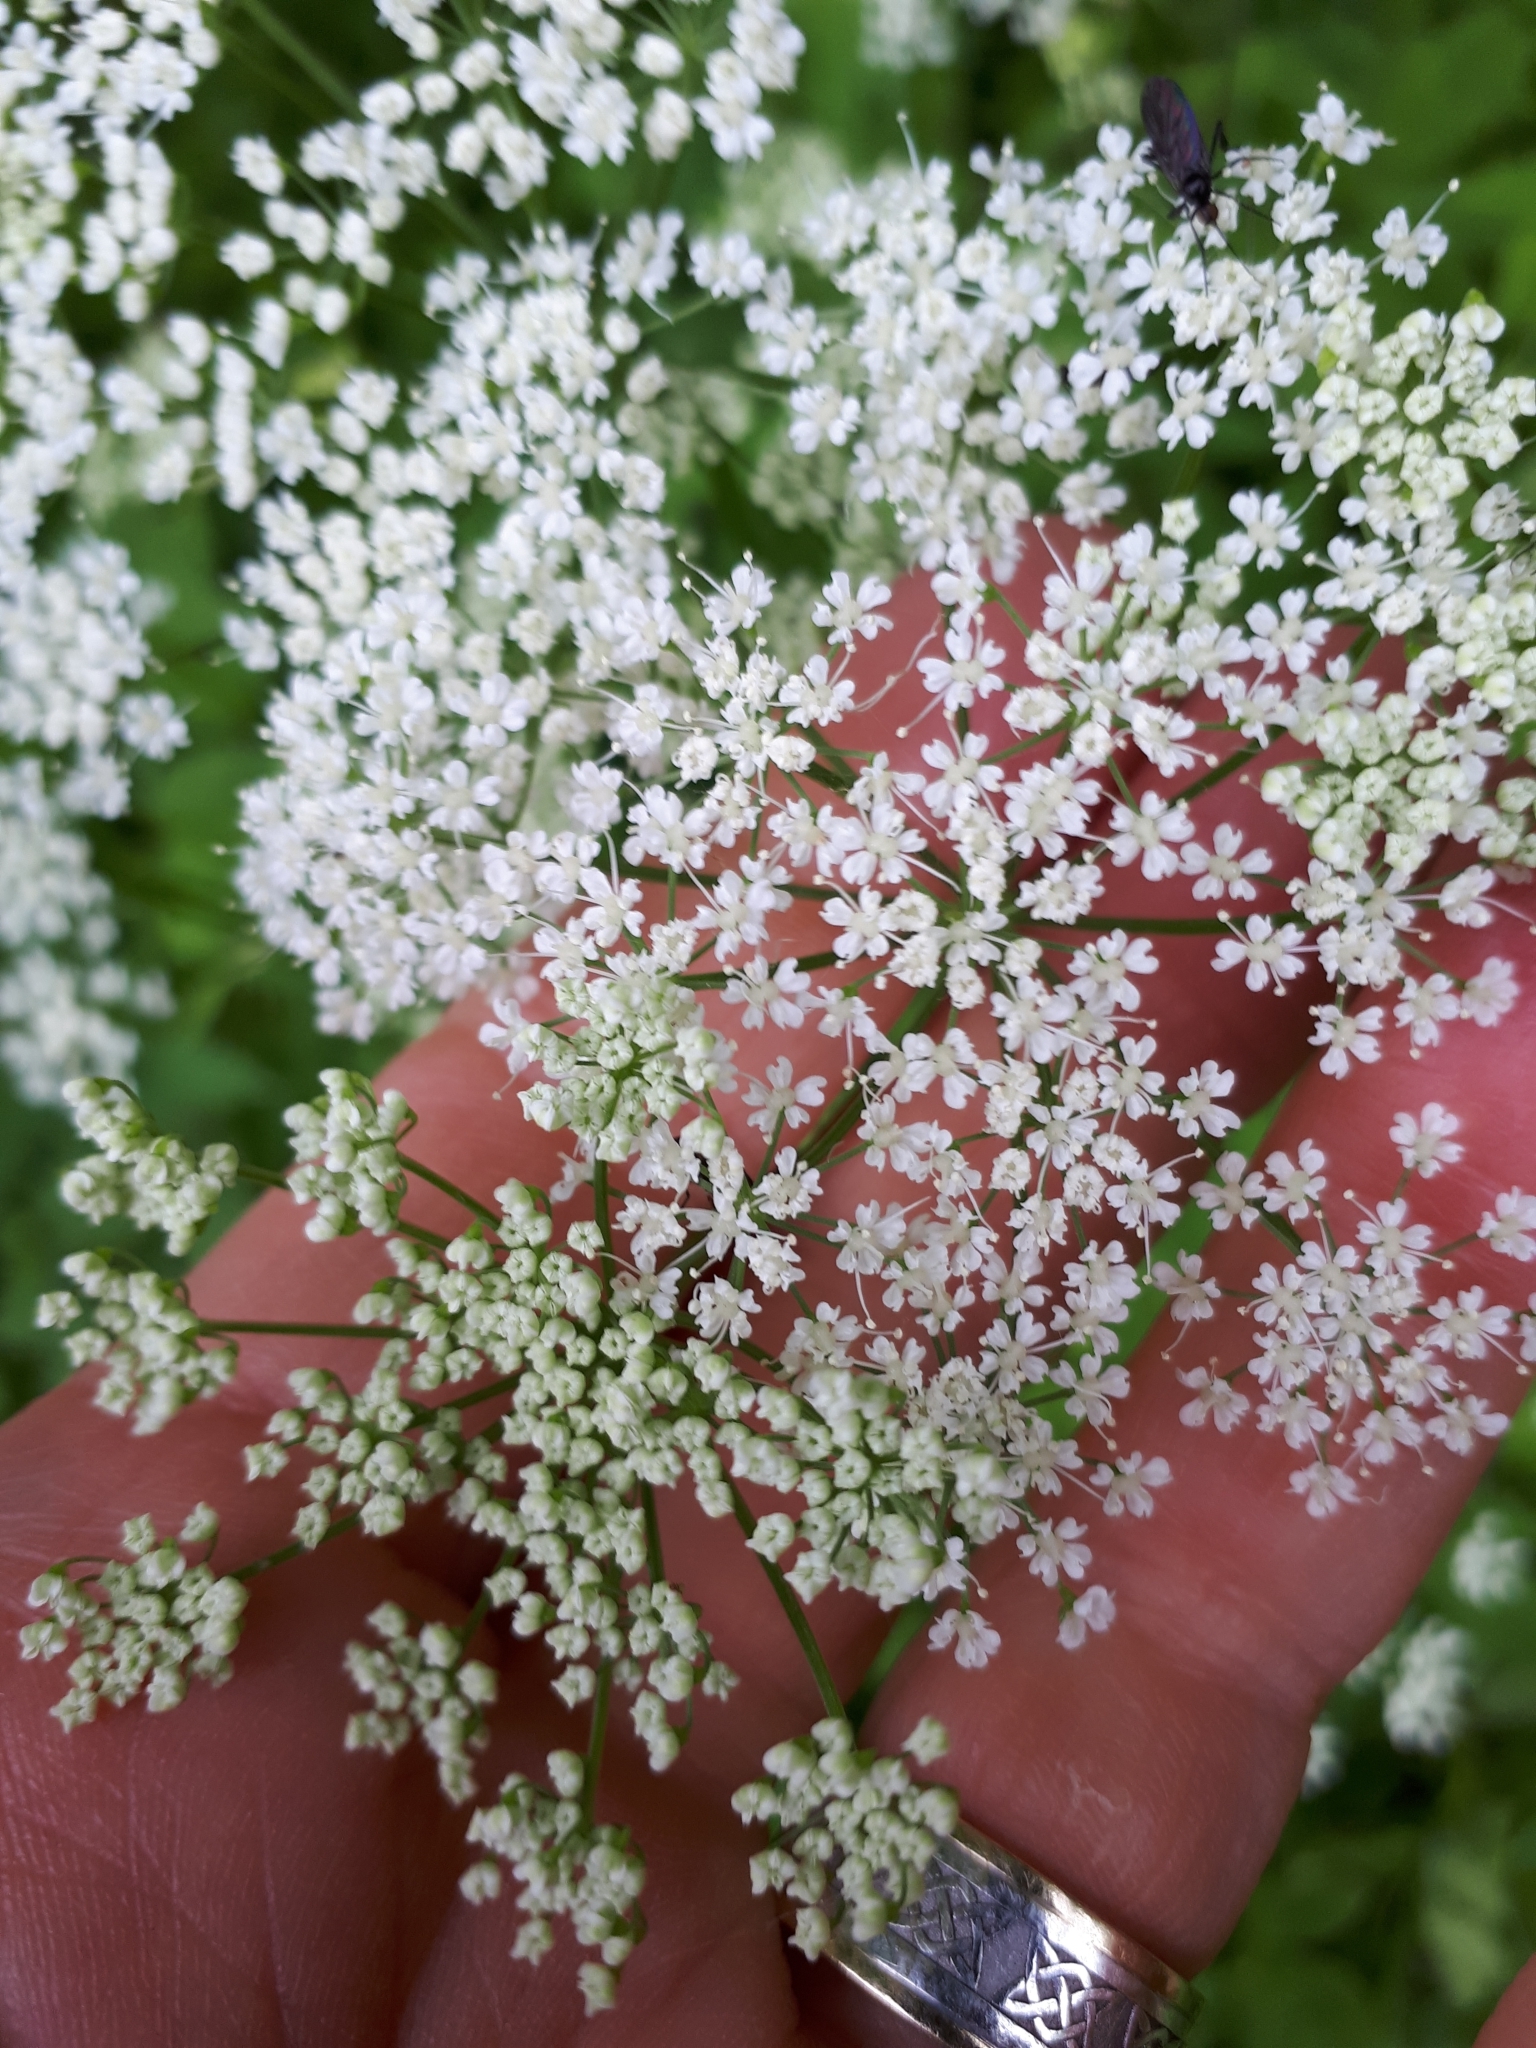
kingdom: Plantae
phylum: Tracheophyta
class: Magnoliopsida
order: Apiales
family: Apiaceae
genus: Aegopodium
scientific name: Aegopodium podagraria
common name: Ground-elder
